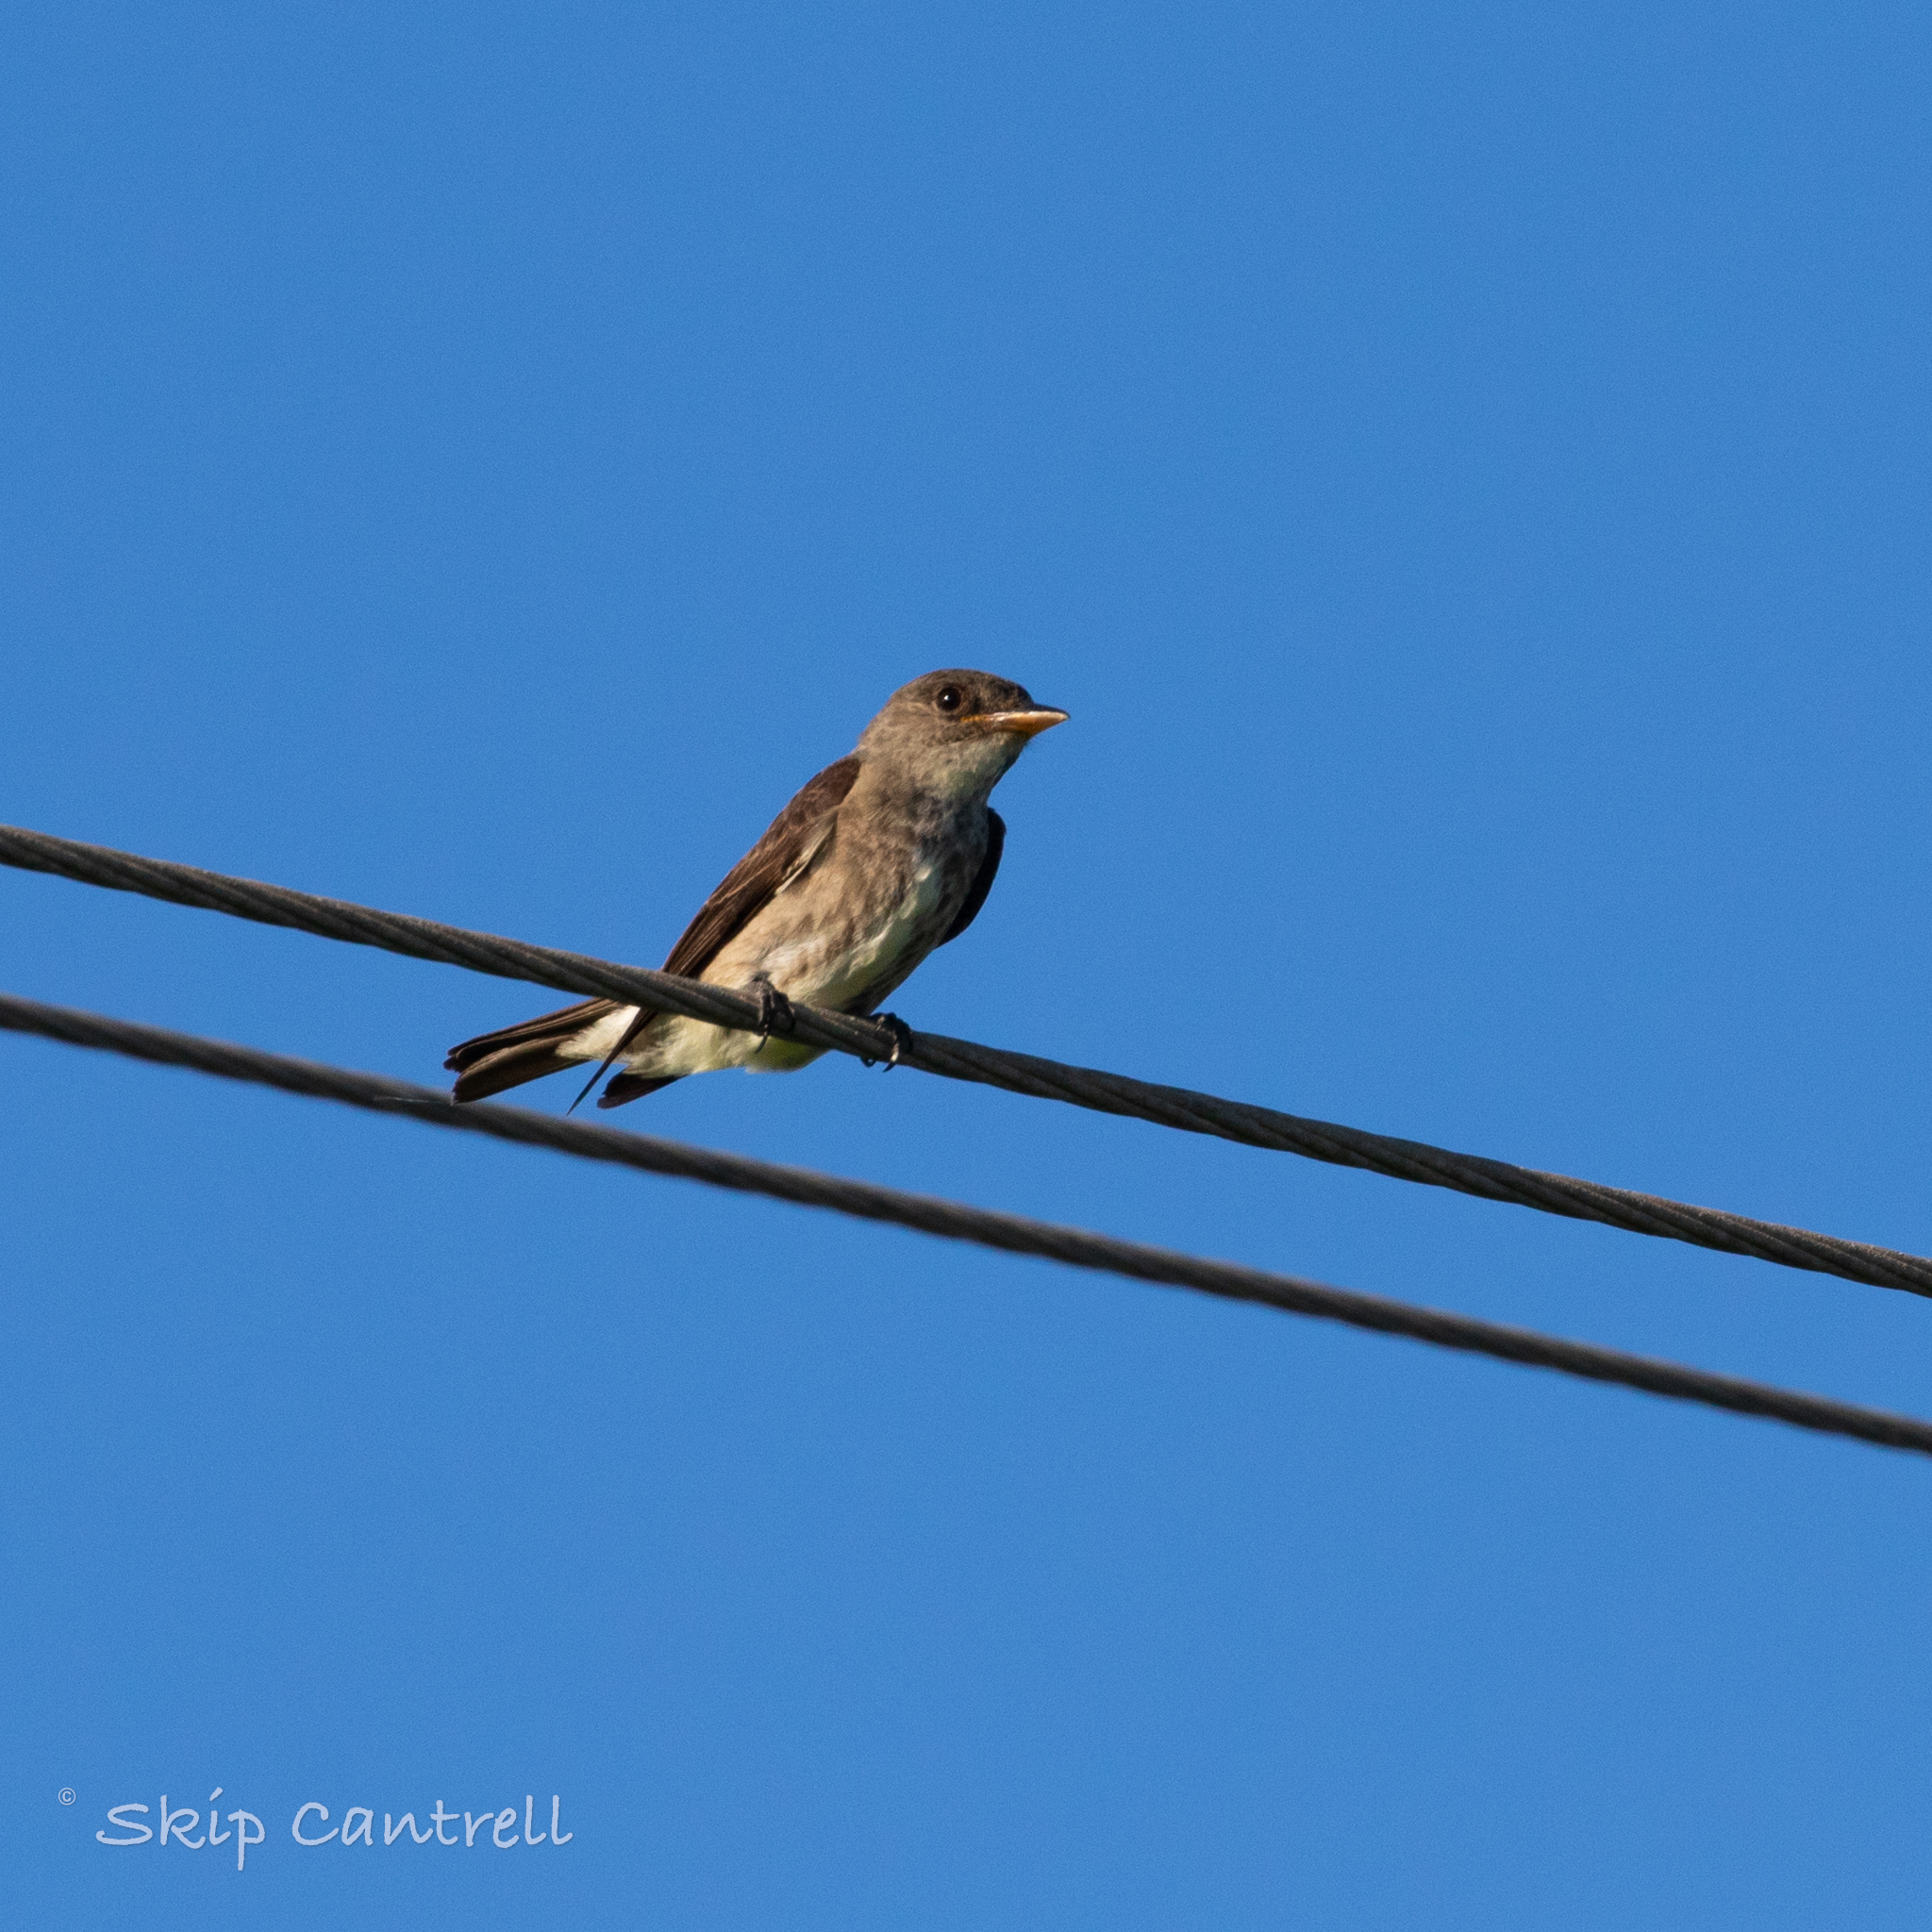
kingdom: Animalia
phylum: Chordata
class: Aves
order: Passeriformes
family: Tyrannidae
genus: Contopus
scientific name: Contopus cooperi
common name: Olive-sided flycatcher
